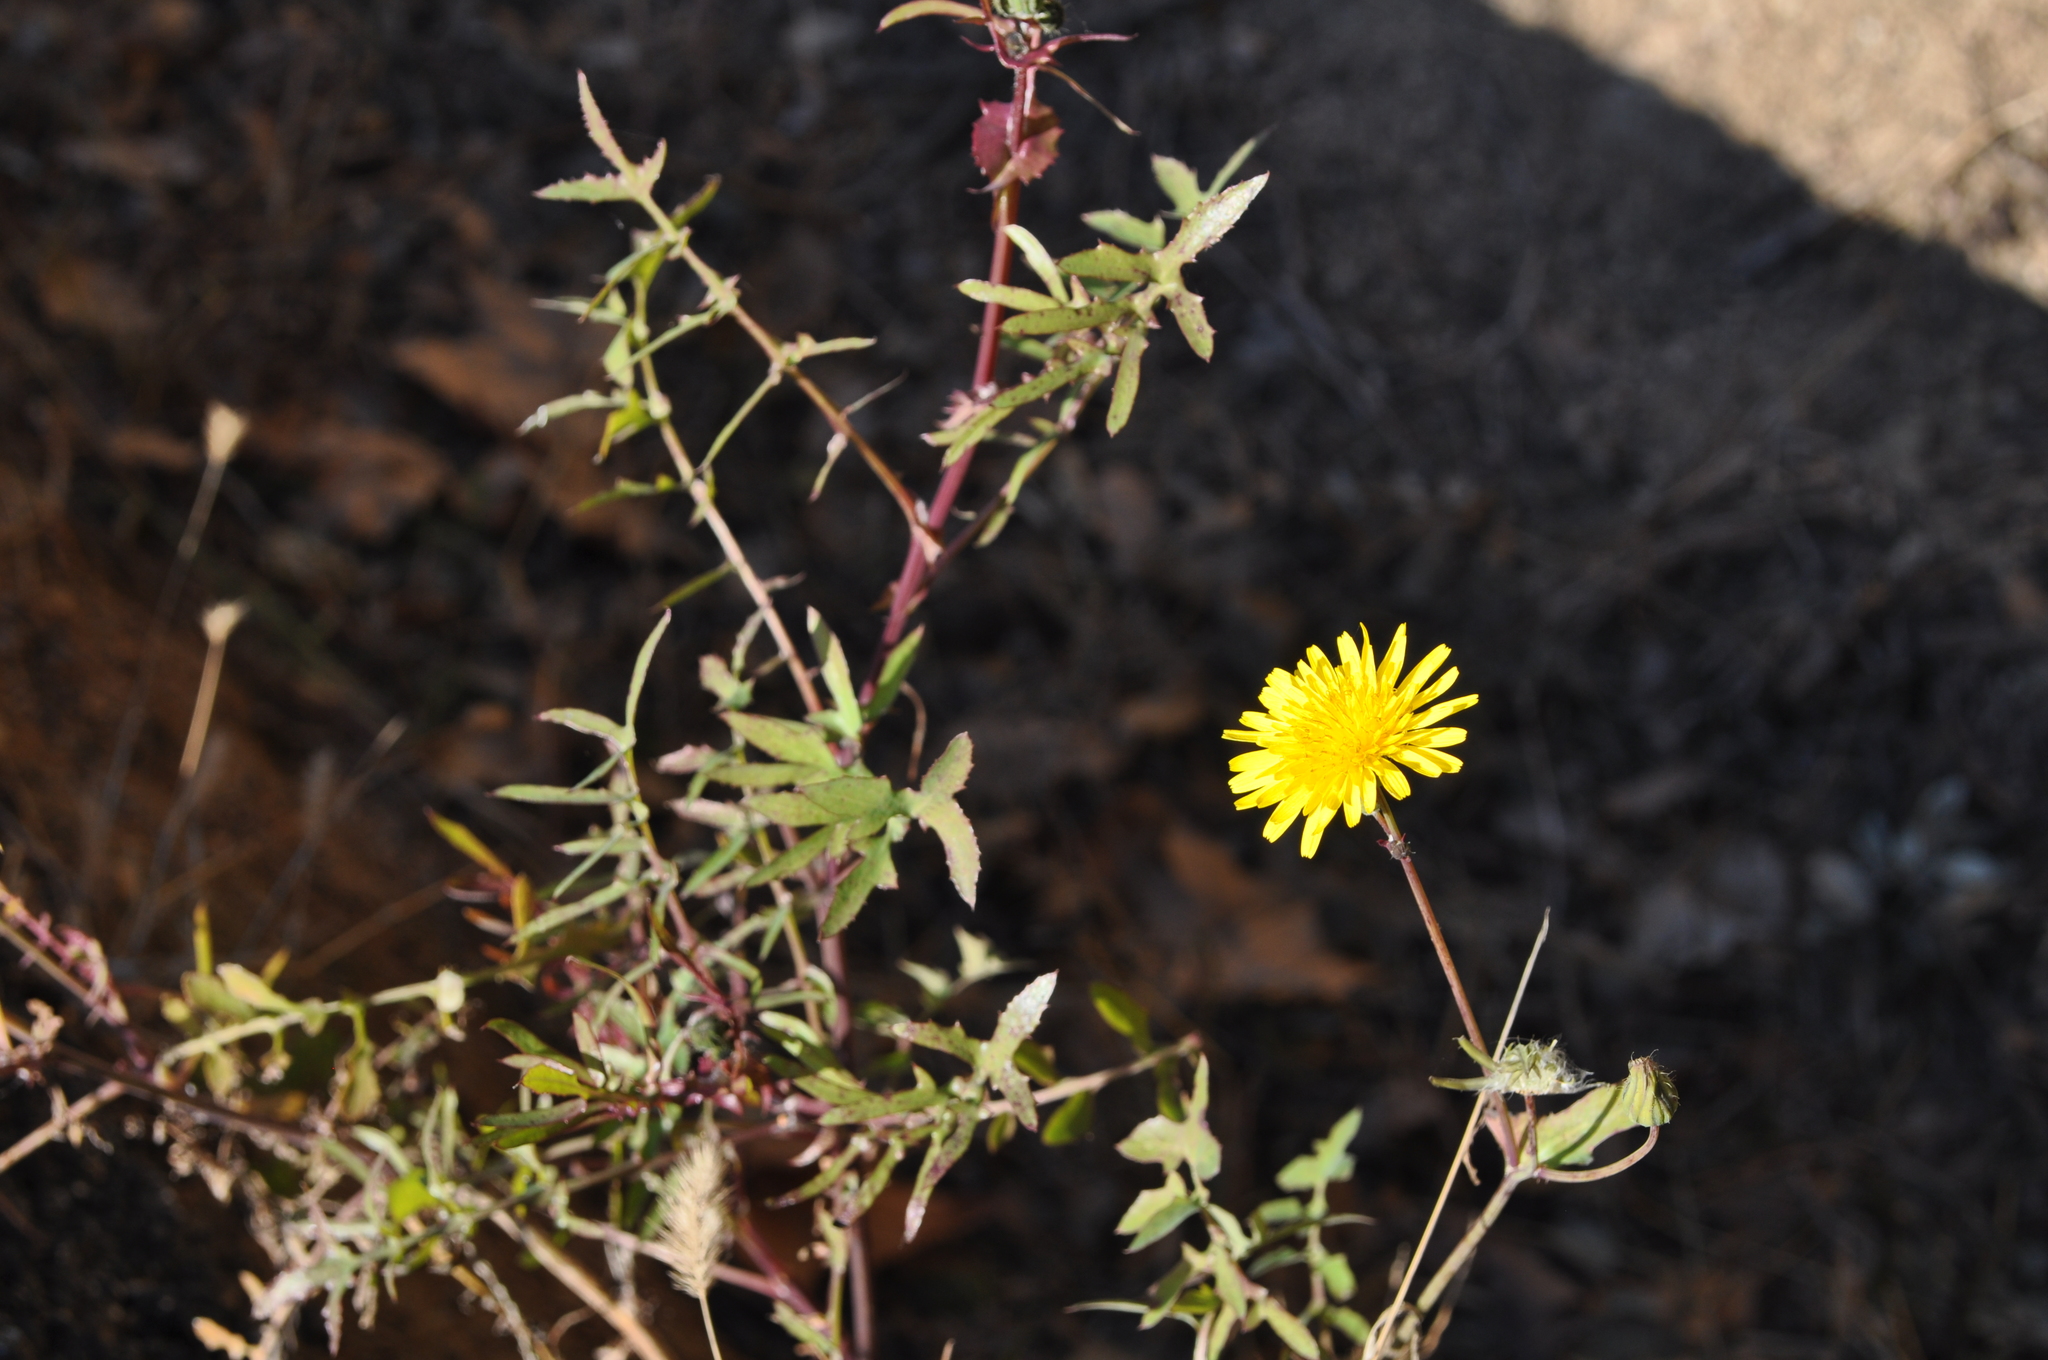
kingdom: Plantae
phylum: Tracheophyta
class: Magnoliopsida
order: Asterales
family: Asteraceae
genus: Sonchus
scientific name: Sonchus tenerrimus
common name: Clammy sowthistle
